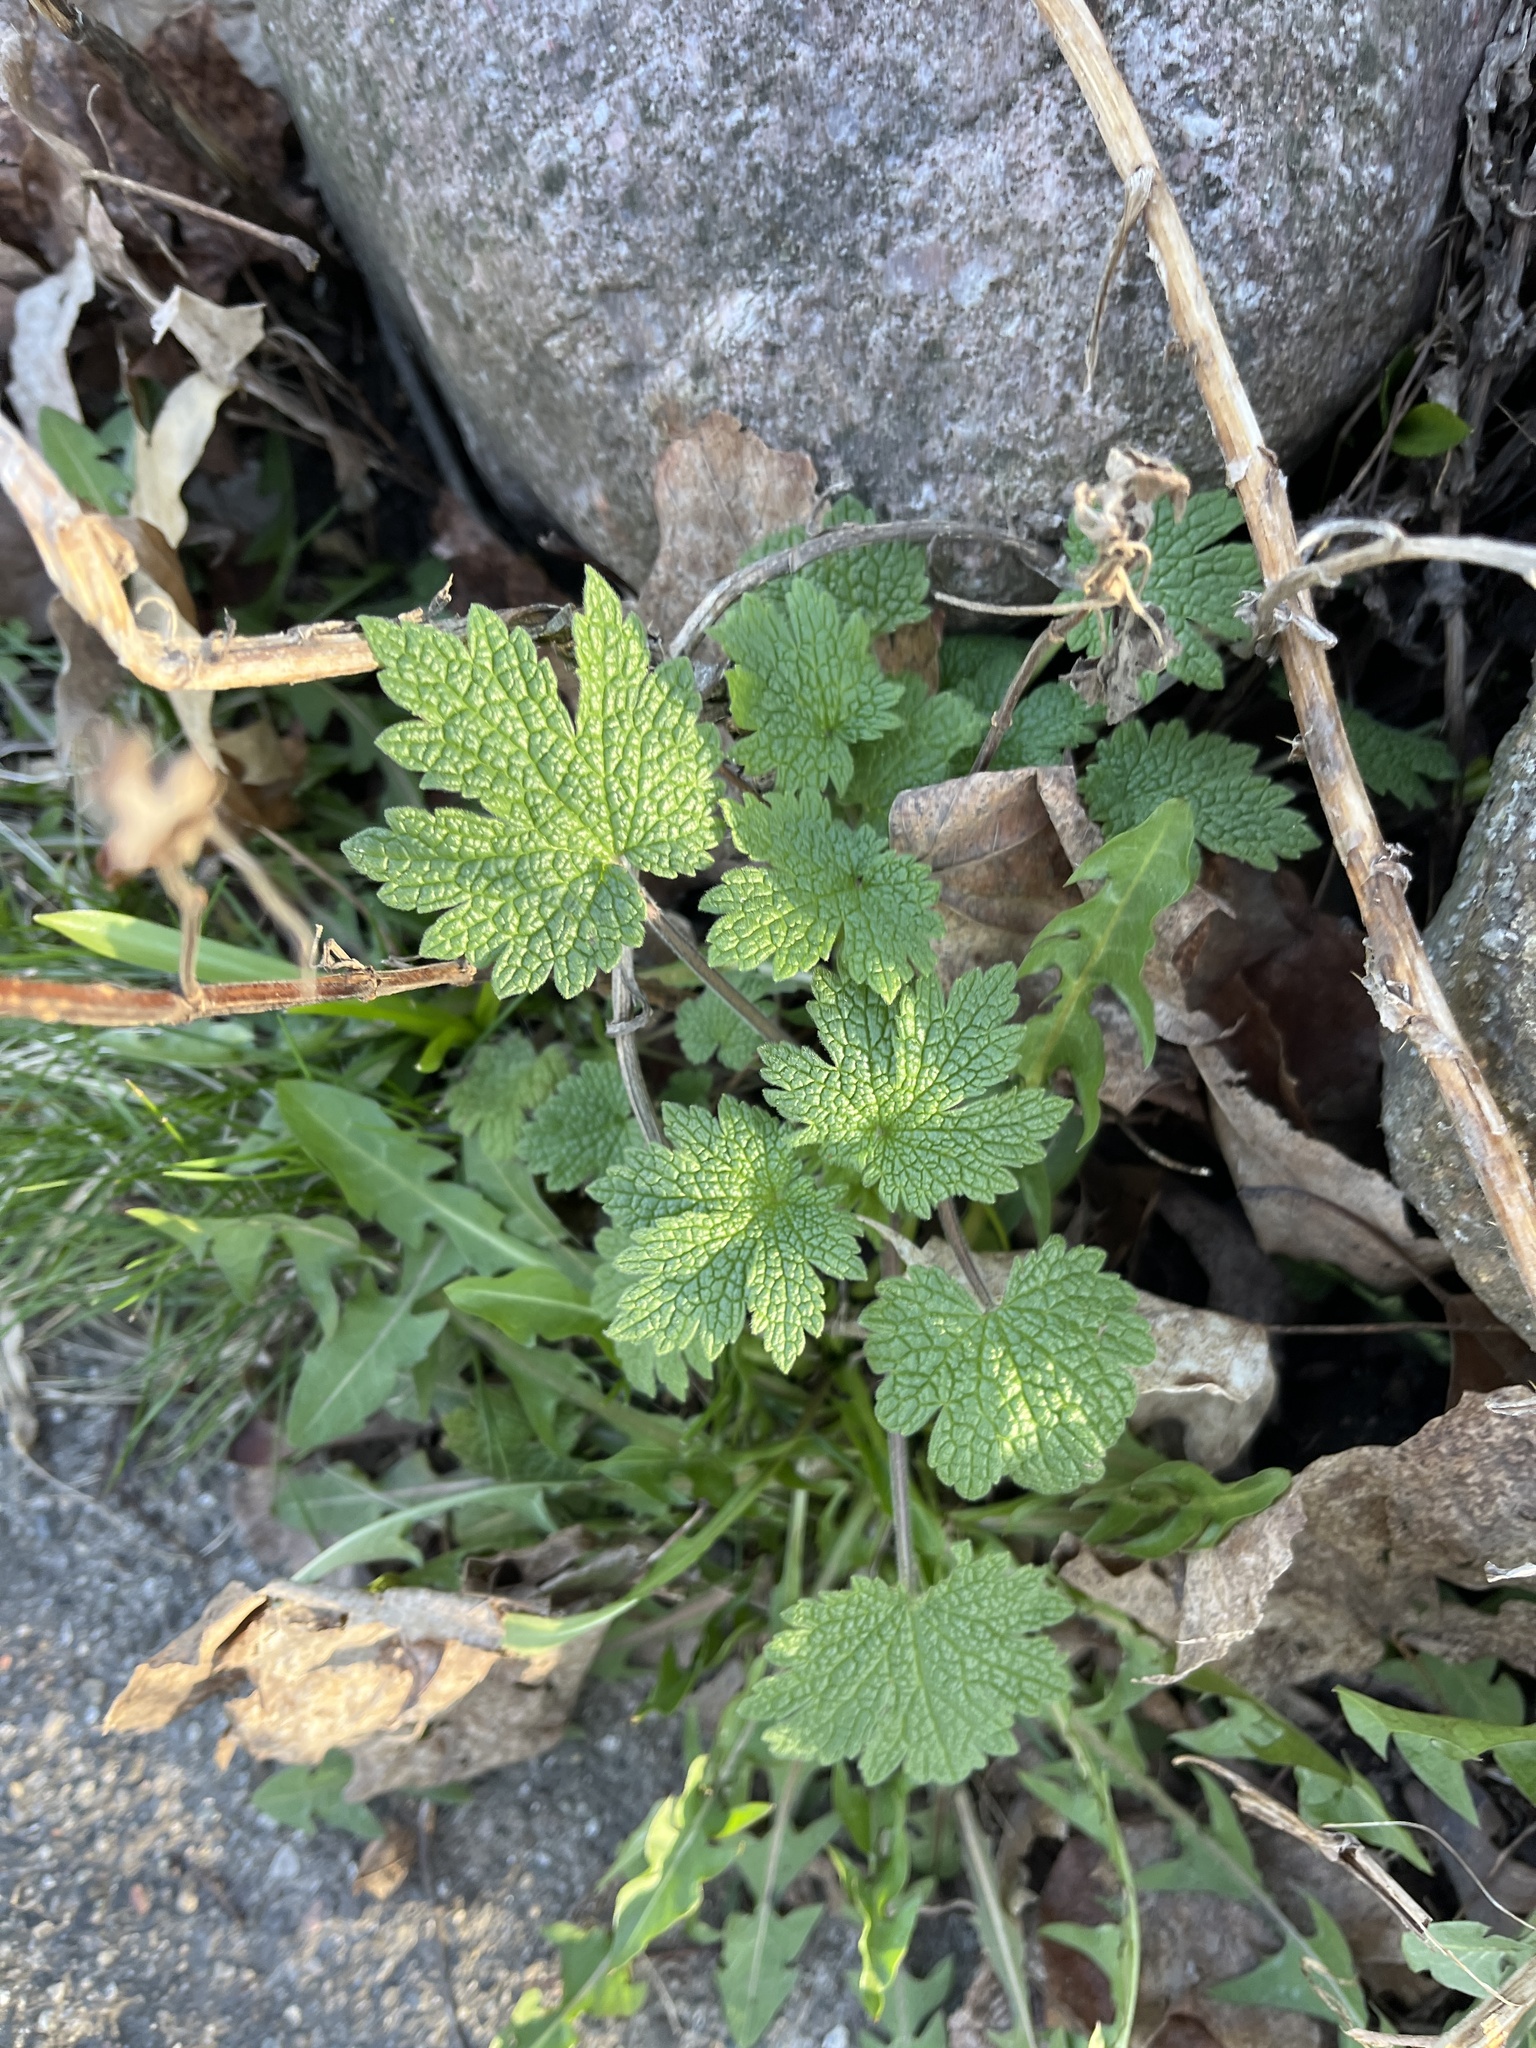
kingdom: Plantae
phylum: Tracheophyta
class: Magnoliopsida
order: Lamiales
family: Lamiaceae
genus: Leonurus
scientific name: Leonurus cardiaca
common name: Motherwort
